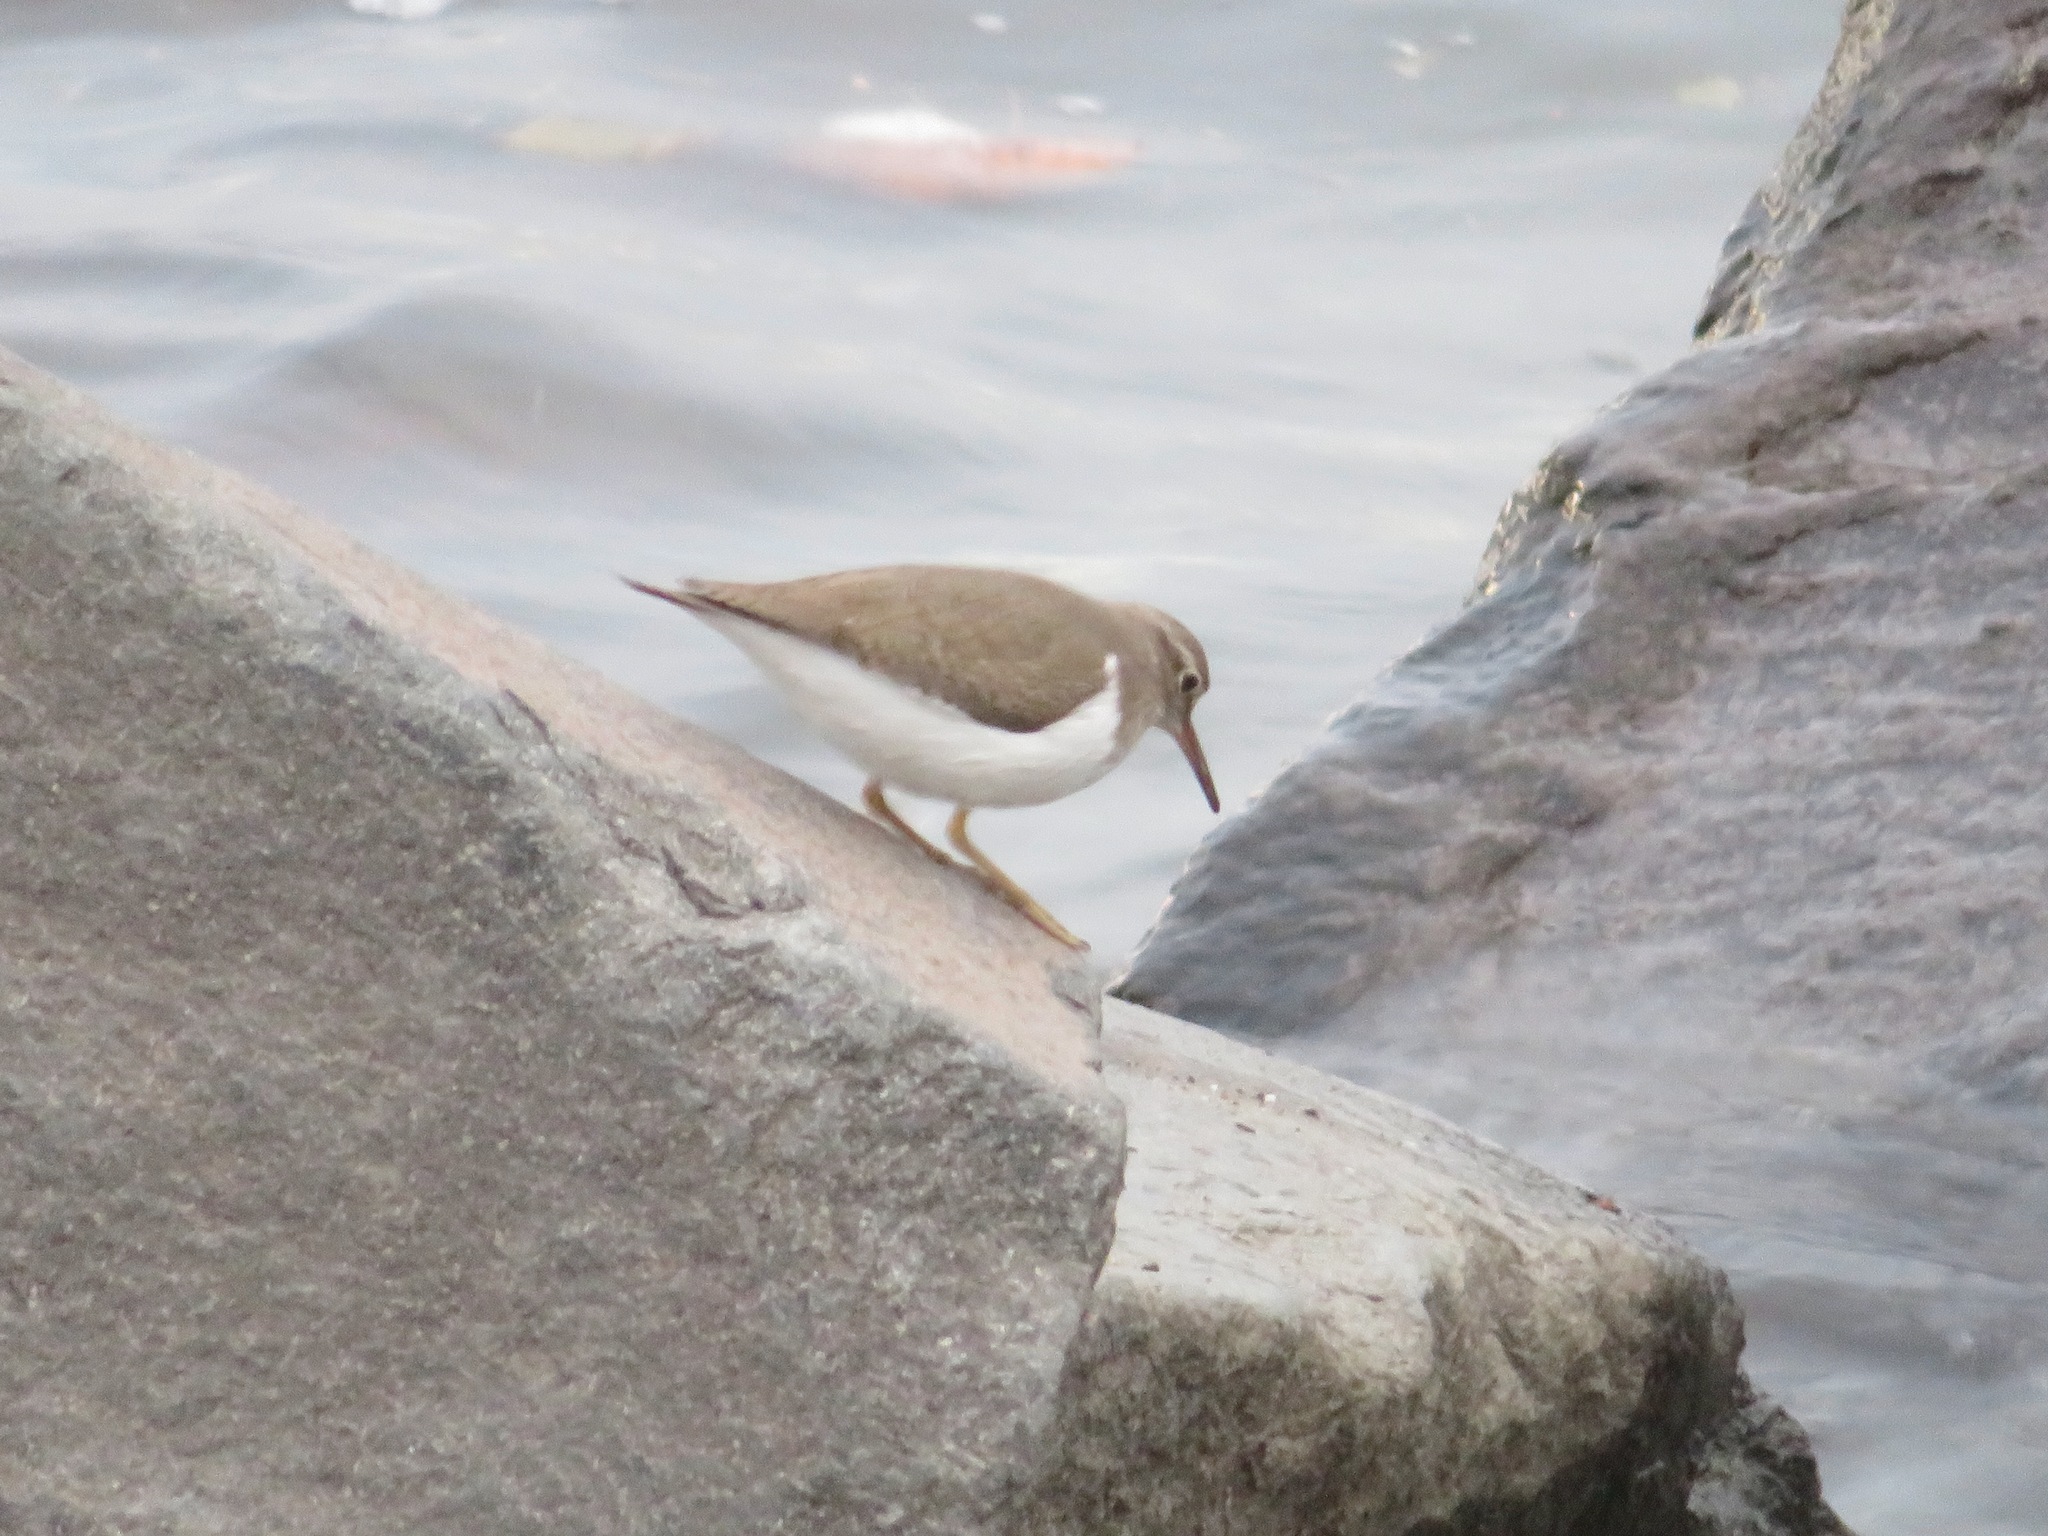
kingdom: Animalia
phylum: Chordata
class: Aves
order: Charadriiformes
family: Scolopacidae
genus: Actitis
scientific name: Actitis hypoleucos
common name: Common sandpiper
